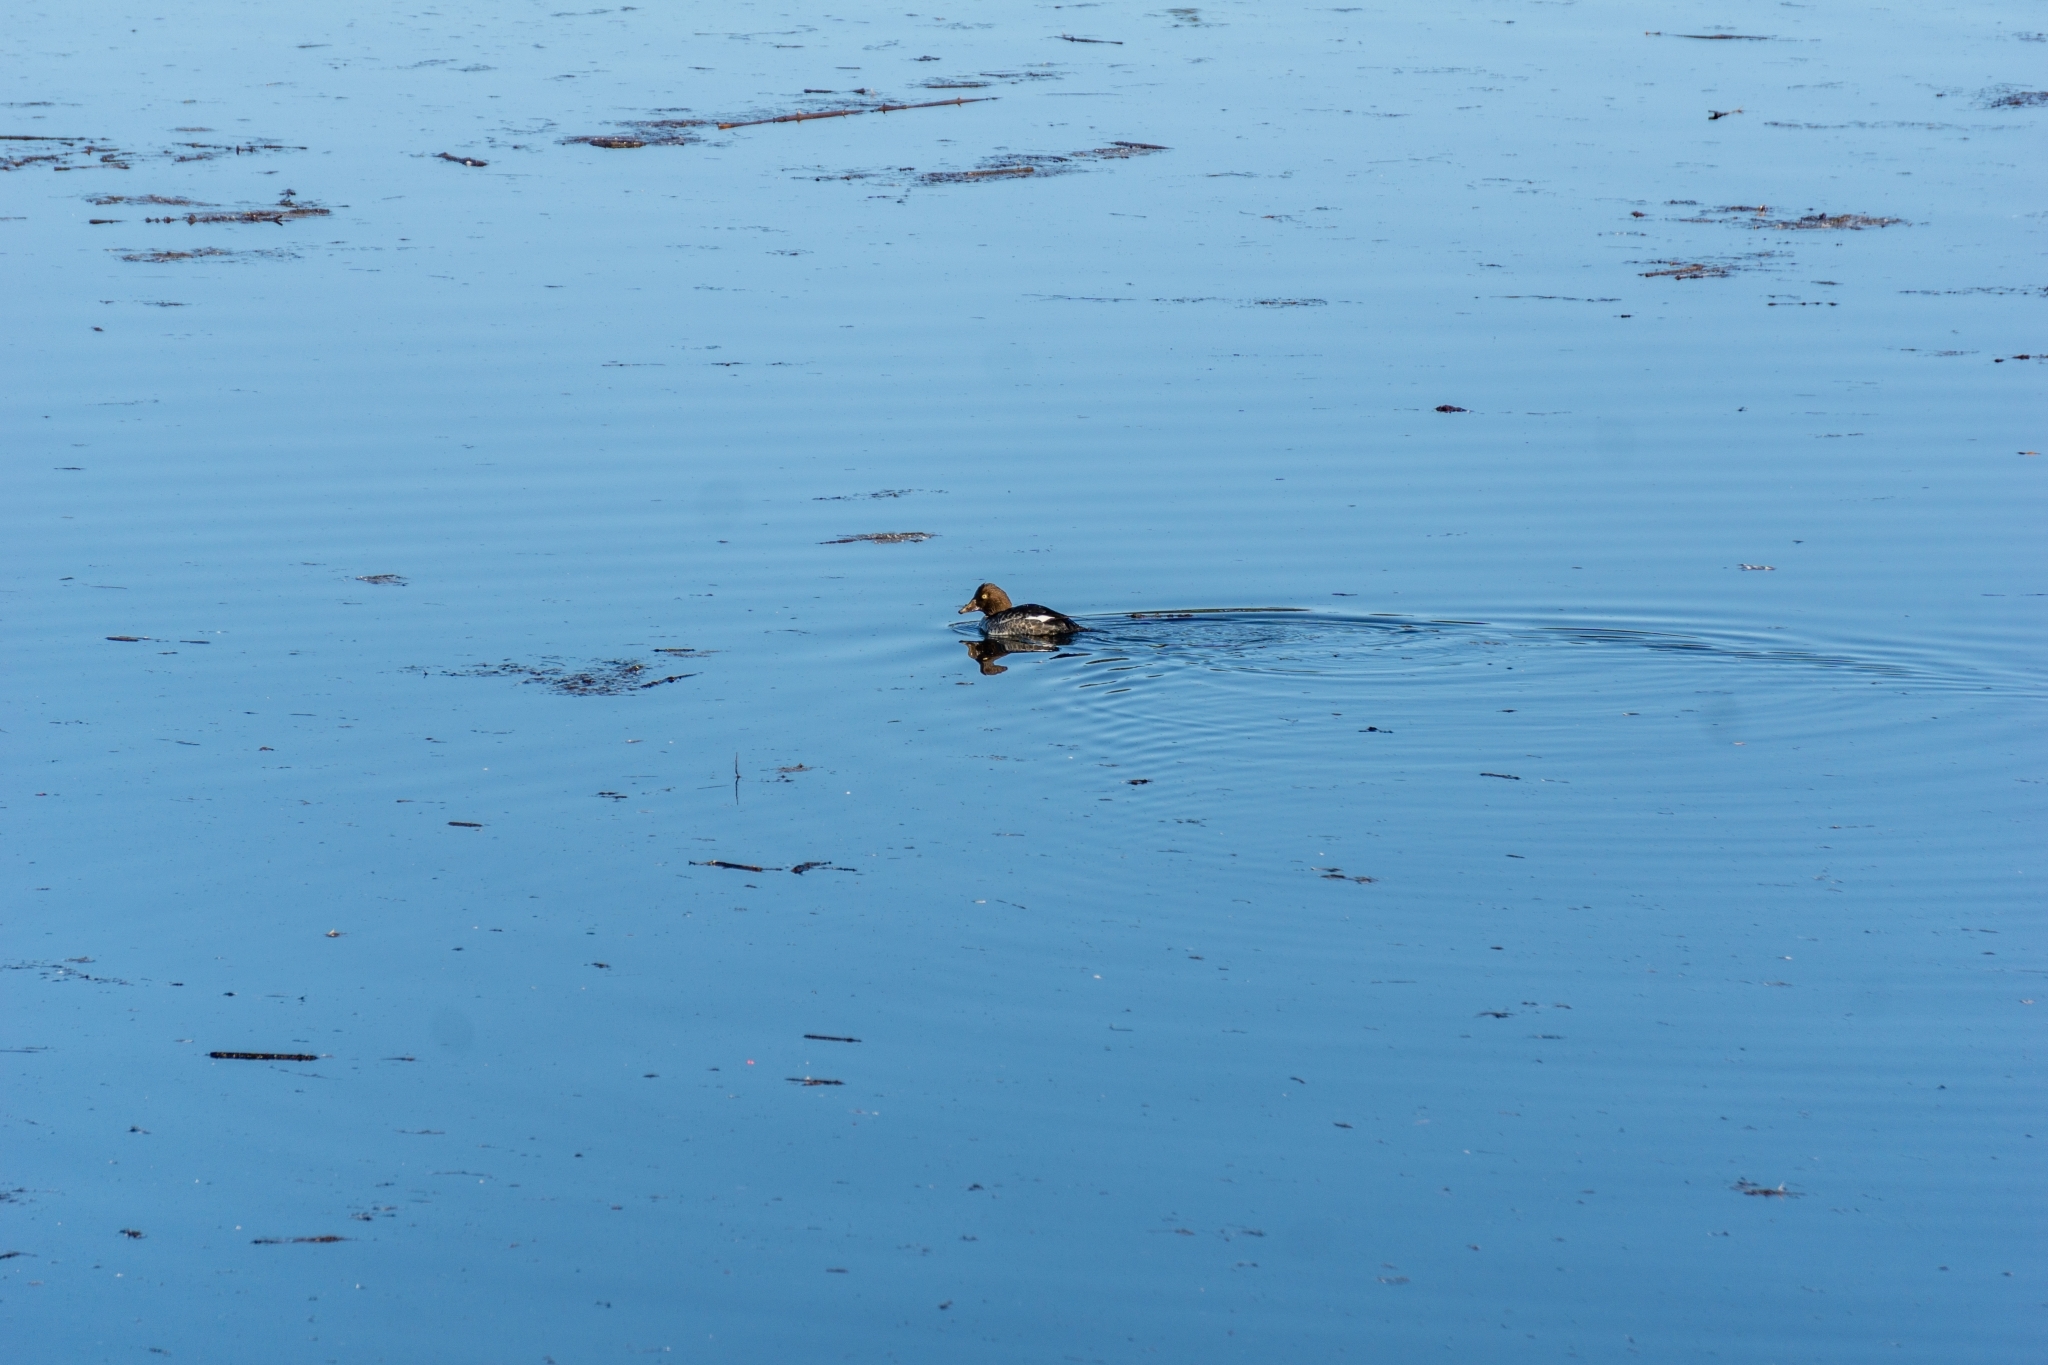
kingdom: Animalia
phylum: Chordata
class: Aves
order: Anseriformes
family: Anatidae
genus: Bucephala
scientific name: Bucephala clangula
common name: Common goldeneye
